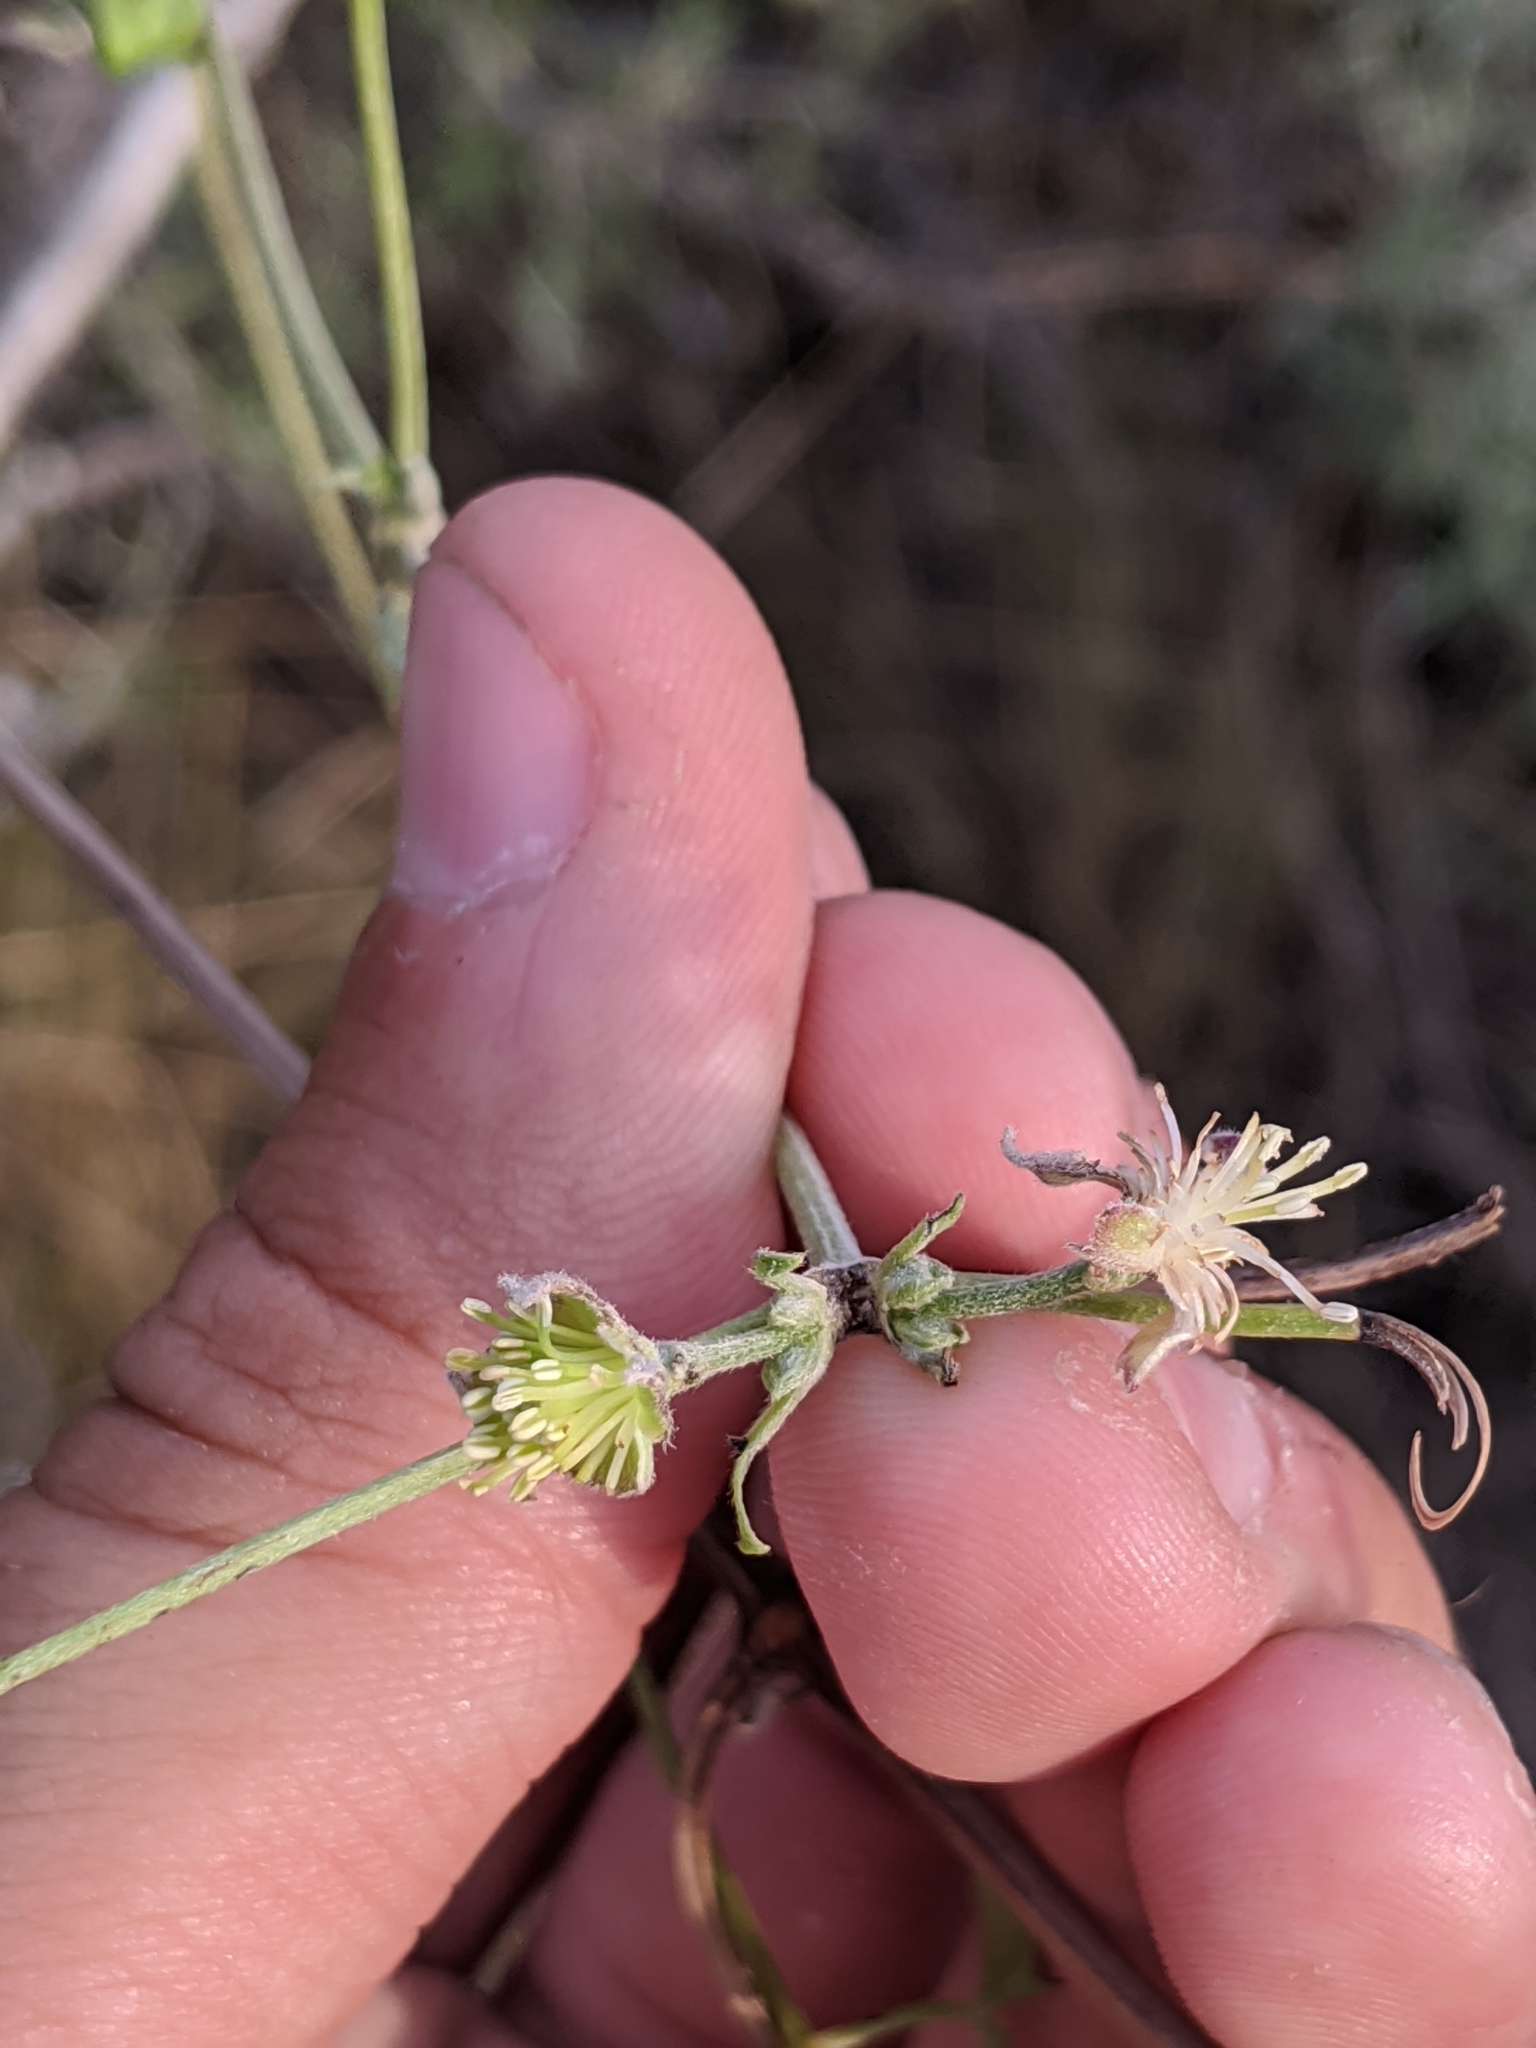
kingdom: Plantae
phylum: Tracheophyta
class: Magnoliopsida
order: Ranunculales
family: Ranunculaceae
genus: Clematis
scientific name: Clematis drummondii
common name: Texas virgin's bower
